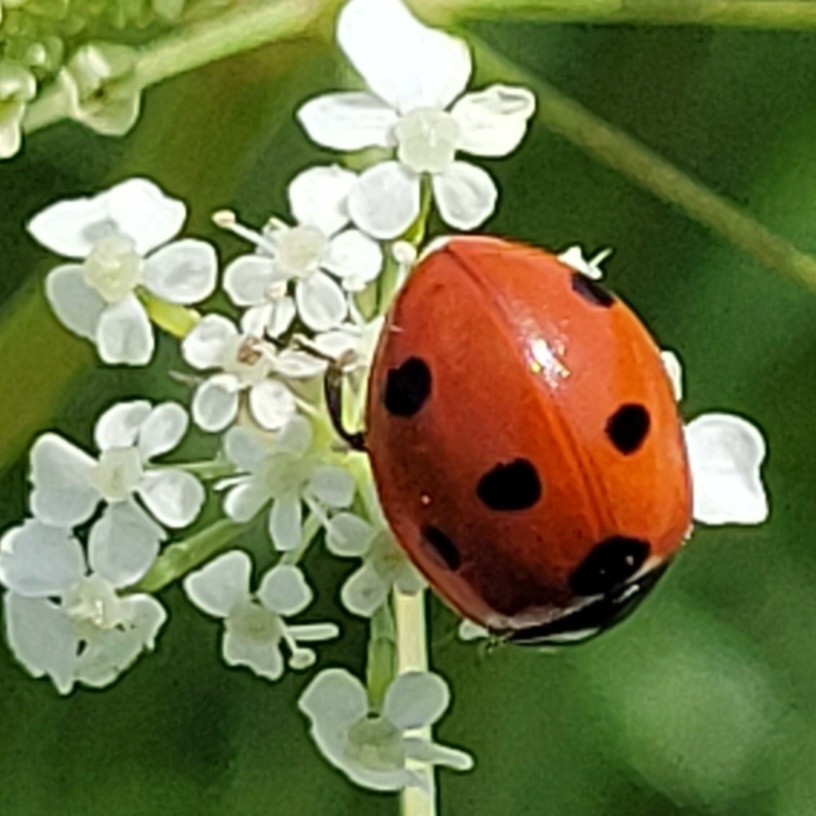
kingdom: Animalia
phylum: Arthropoda
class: Insecta
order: Coleoptera
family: Coccinellidae
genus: Coccinella
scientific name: Coccinella septempunctata
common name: Sevenspotted lady beetle
